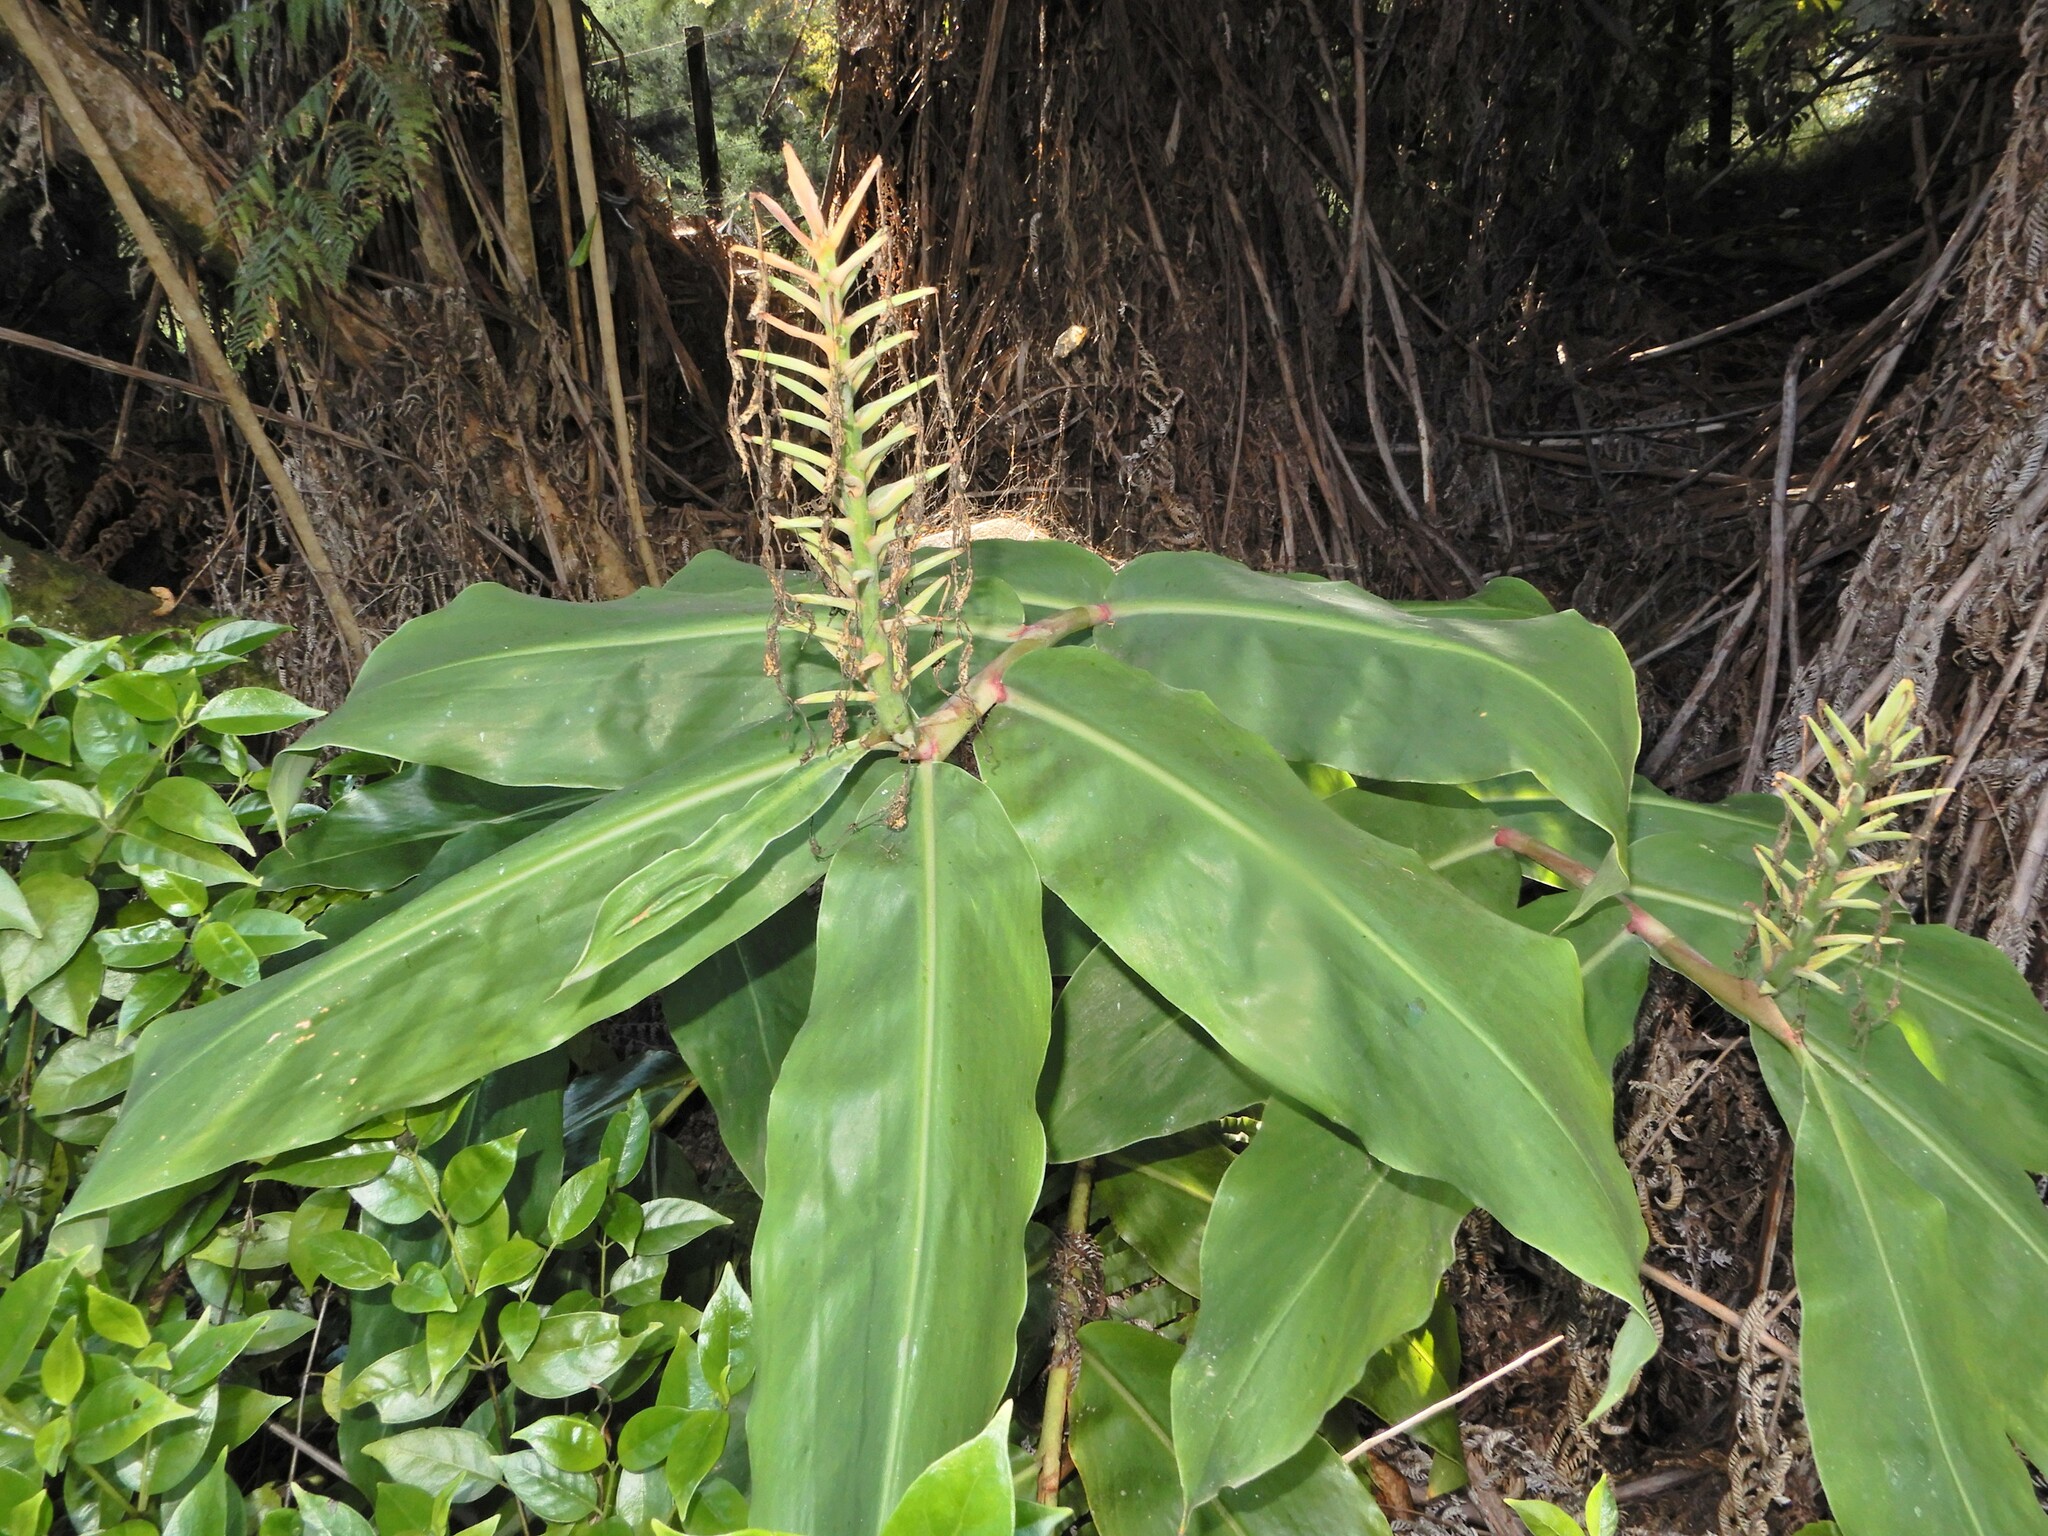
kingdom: Plantae
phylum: Tracheophyta
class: Liliopsida
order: Zingiberales
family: Zingiberaceae
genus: Hedychium
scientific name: Hedychium gardnerianum
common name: Himalayan ginger
